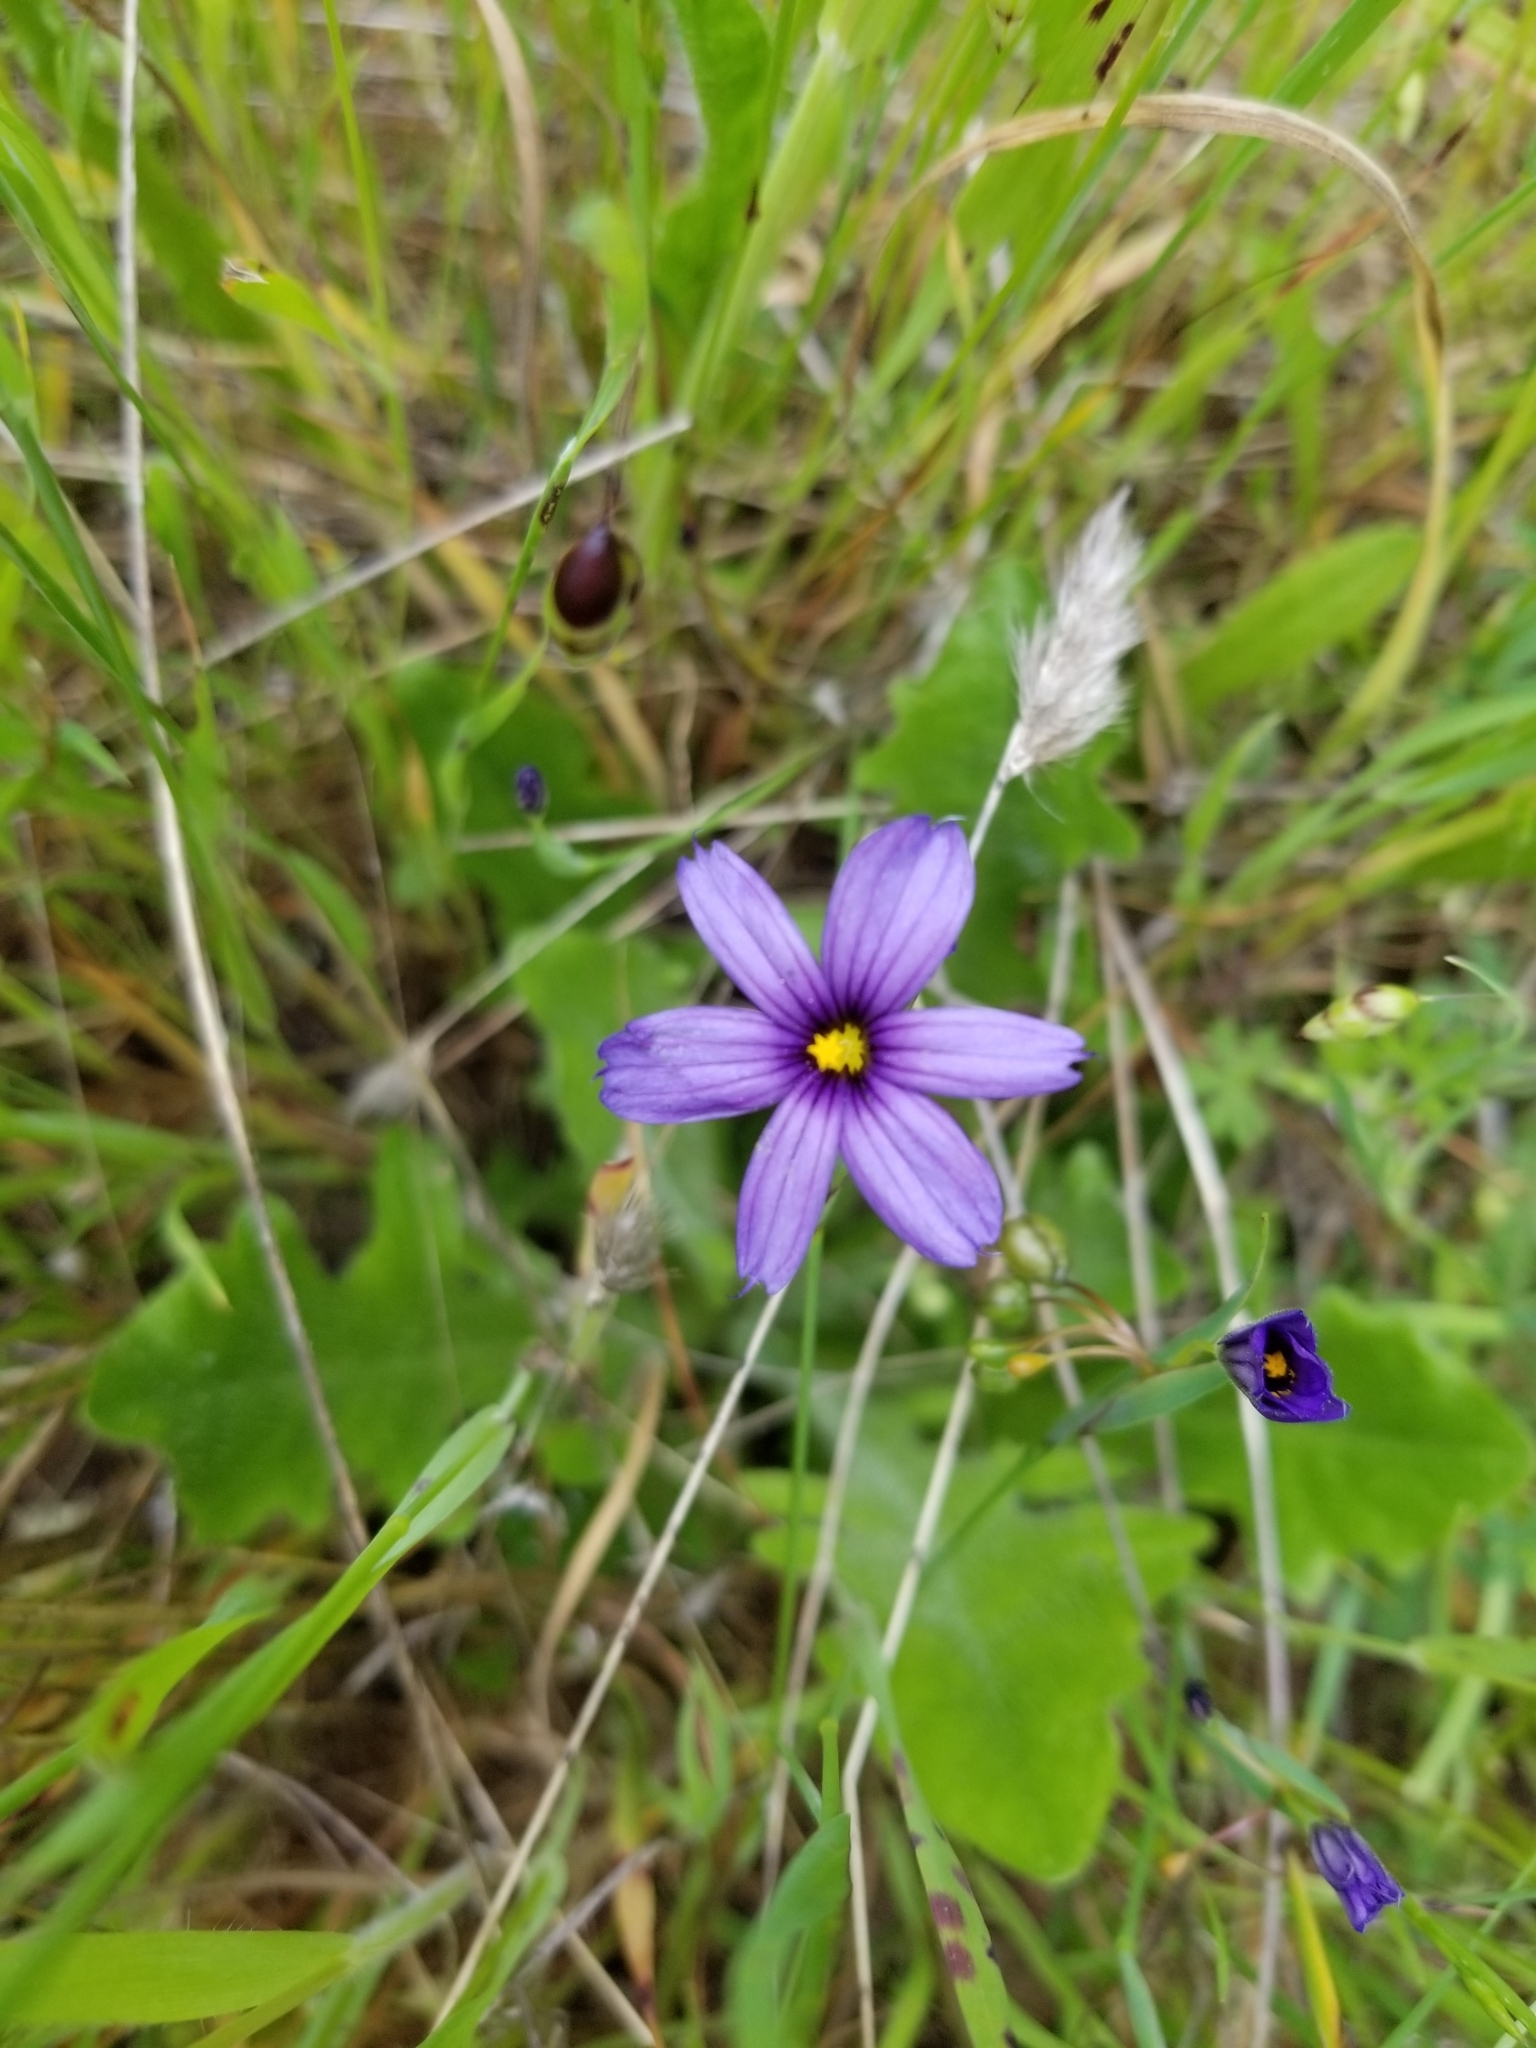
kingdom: Plantae
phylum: Tracheophyta
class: Liliopsida
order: Asparagales
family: Iridaceae
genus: Sisyrinchium
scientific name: Sisyrinchium bellum
